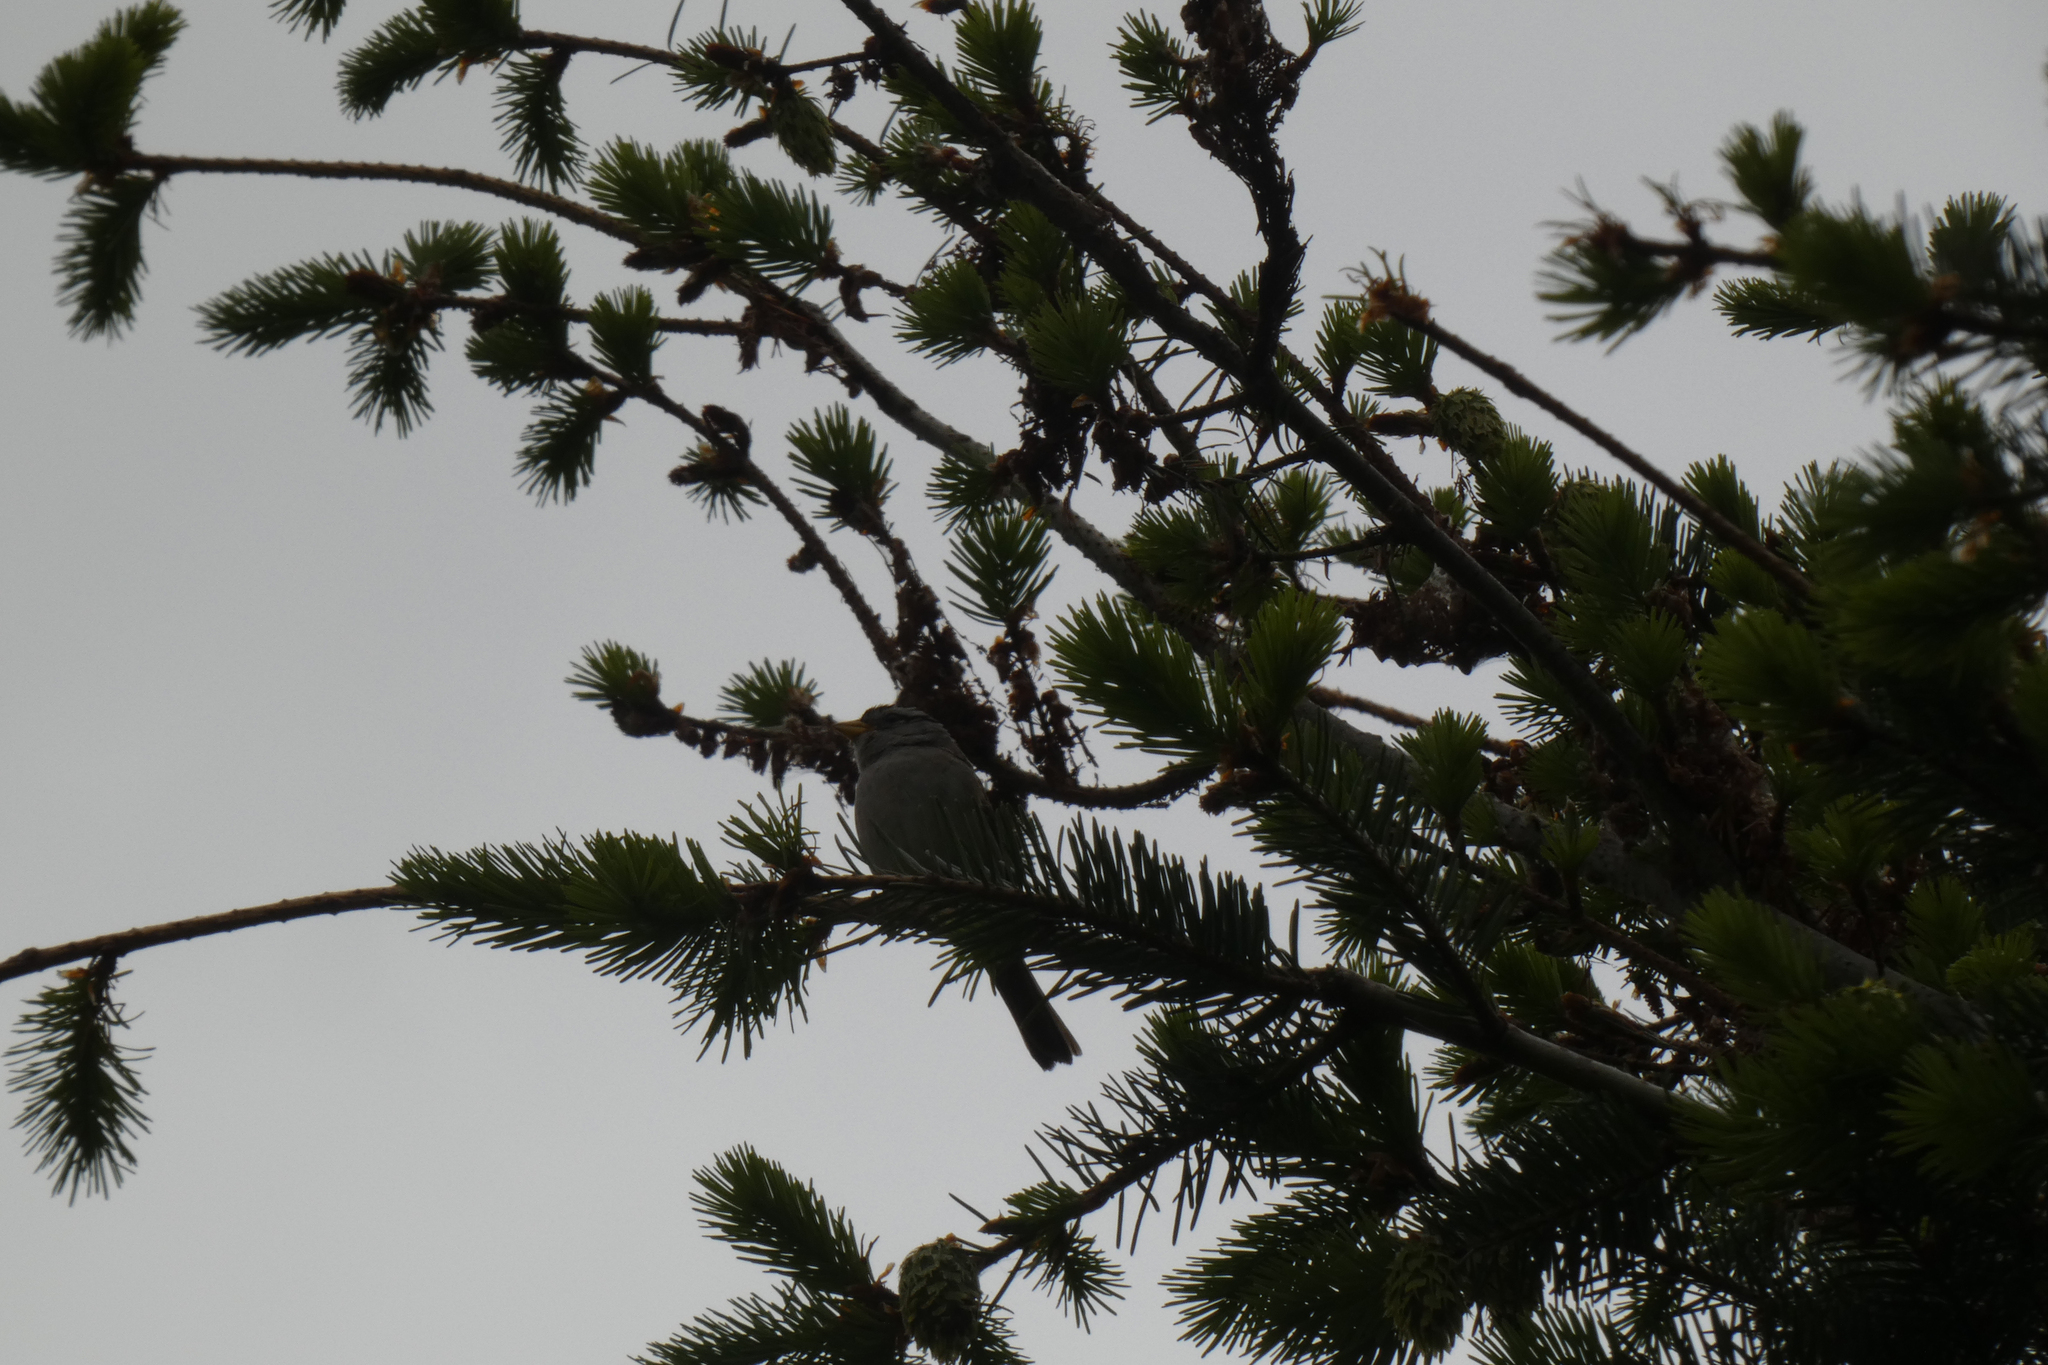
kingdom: Animalia
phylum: Chordata
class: Aves
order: Passeriformes
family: Passerellidae
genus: Zonotrichia
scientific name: Zonotrichia leucophrys
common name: White-crowned sparrow
